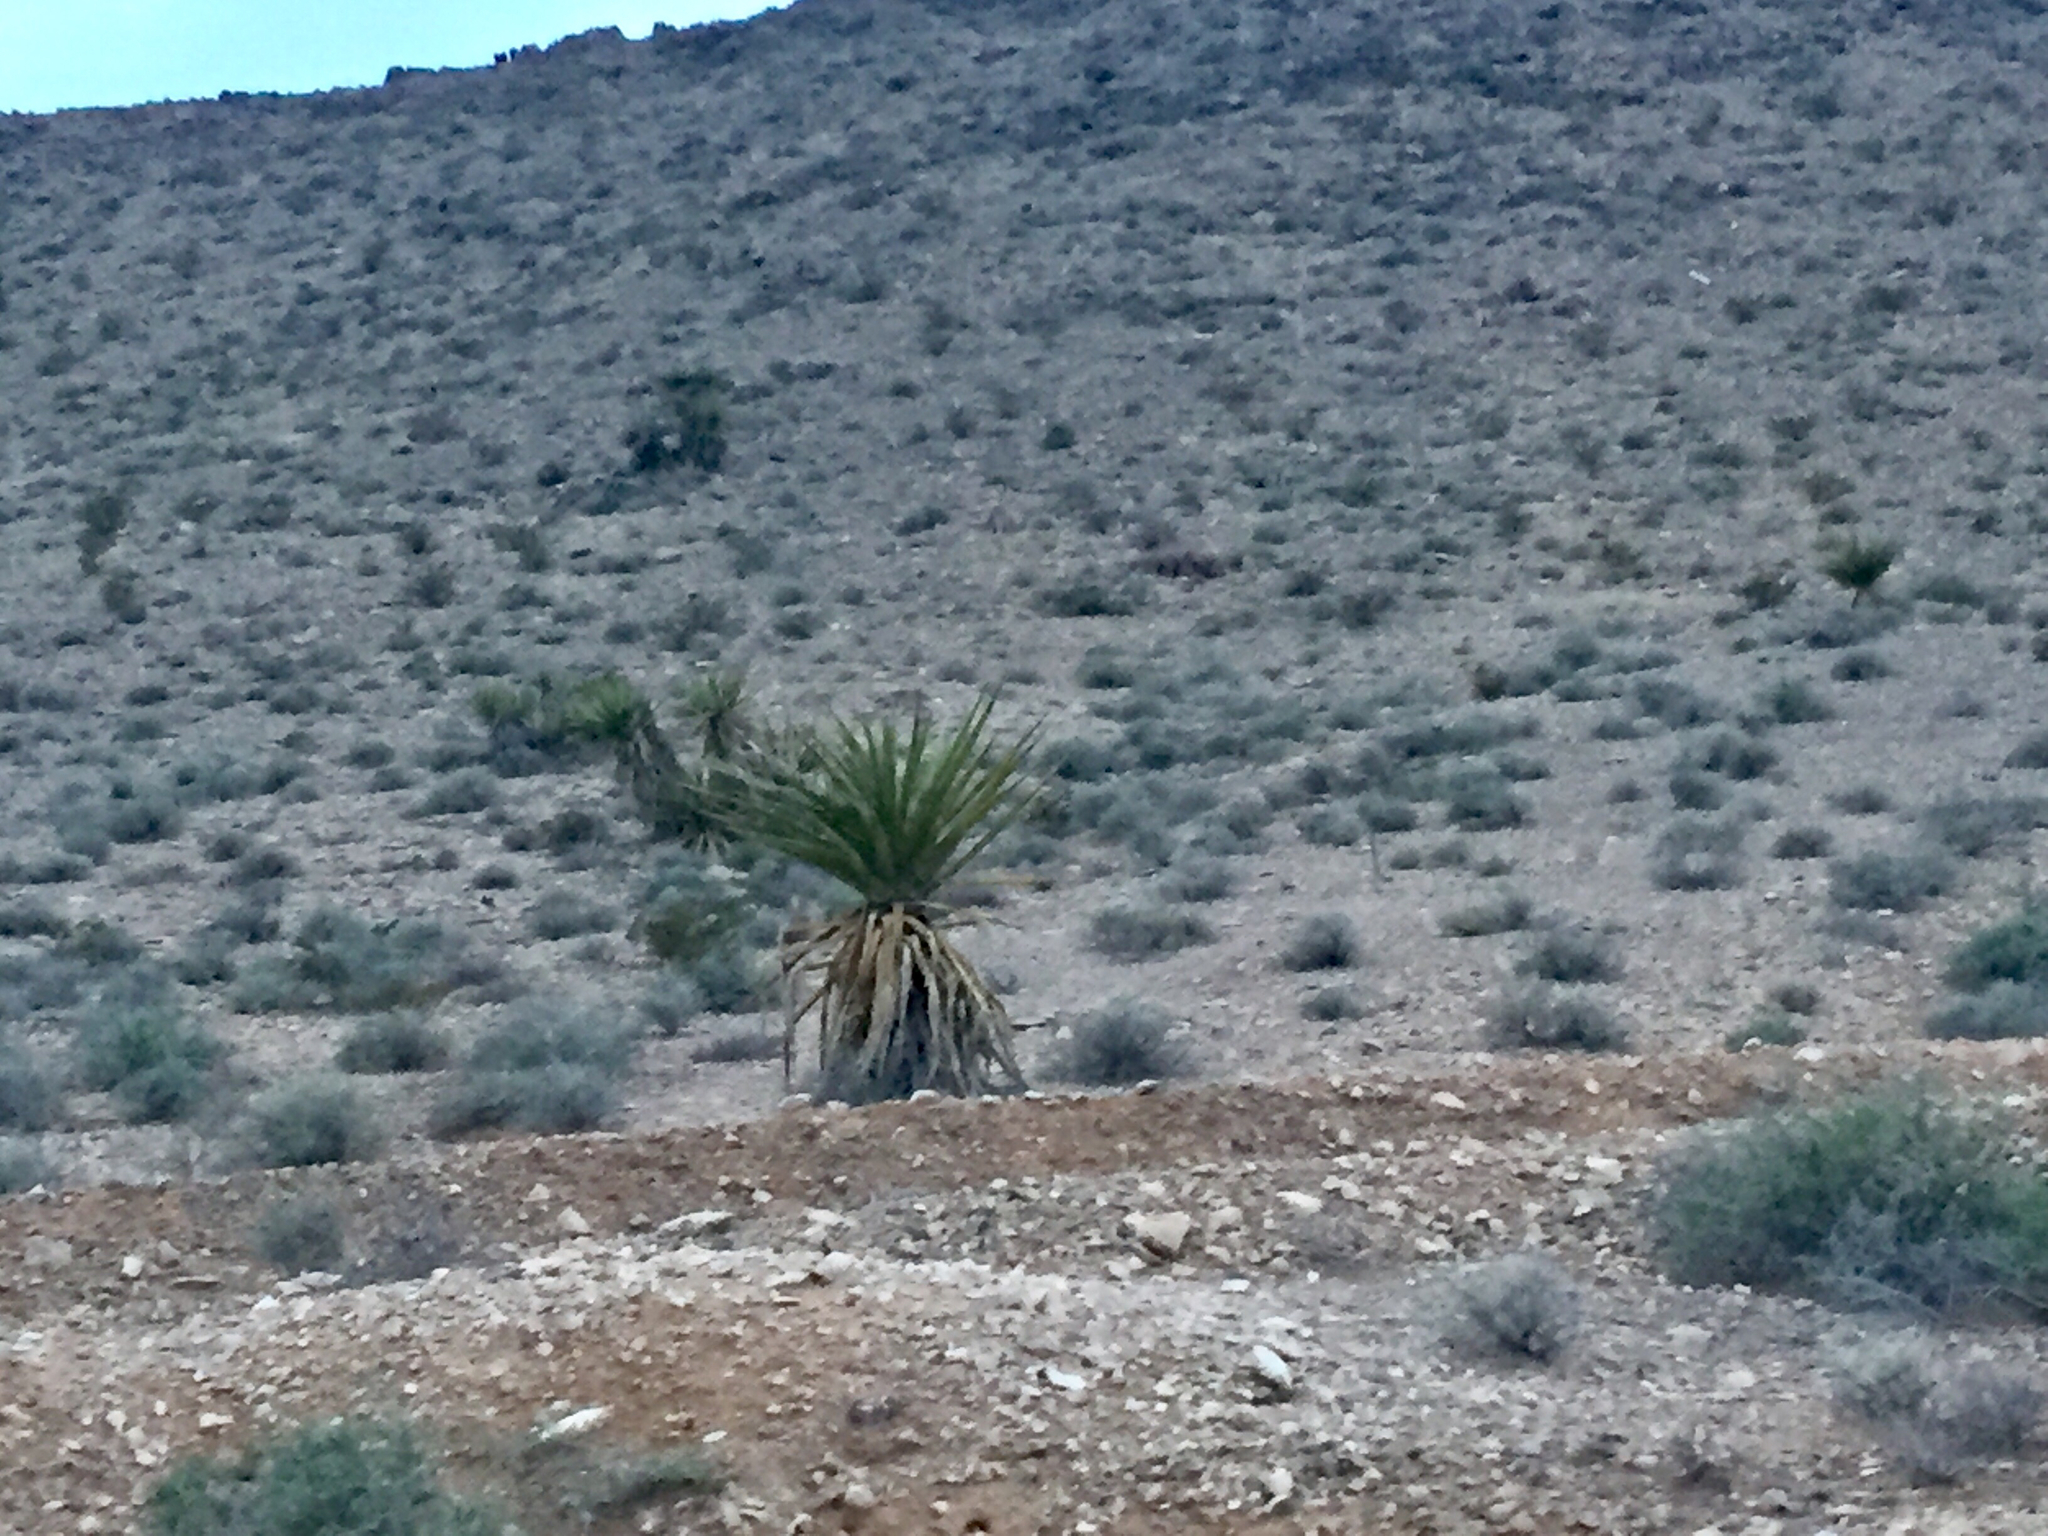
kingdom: Plantae
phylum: Tracheophyta
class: Liliopsida
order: Asparagales
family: Asparagaceae
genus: Yucca
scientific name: Yucca schidigera
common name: Mojave yucca
